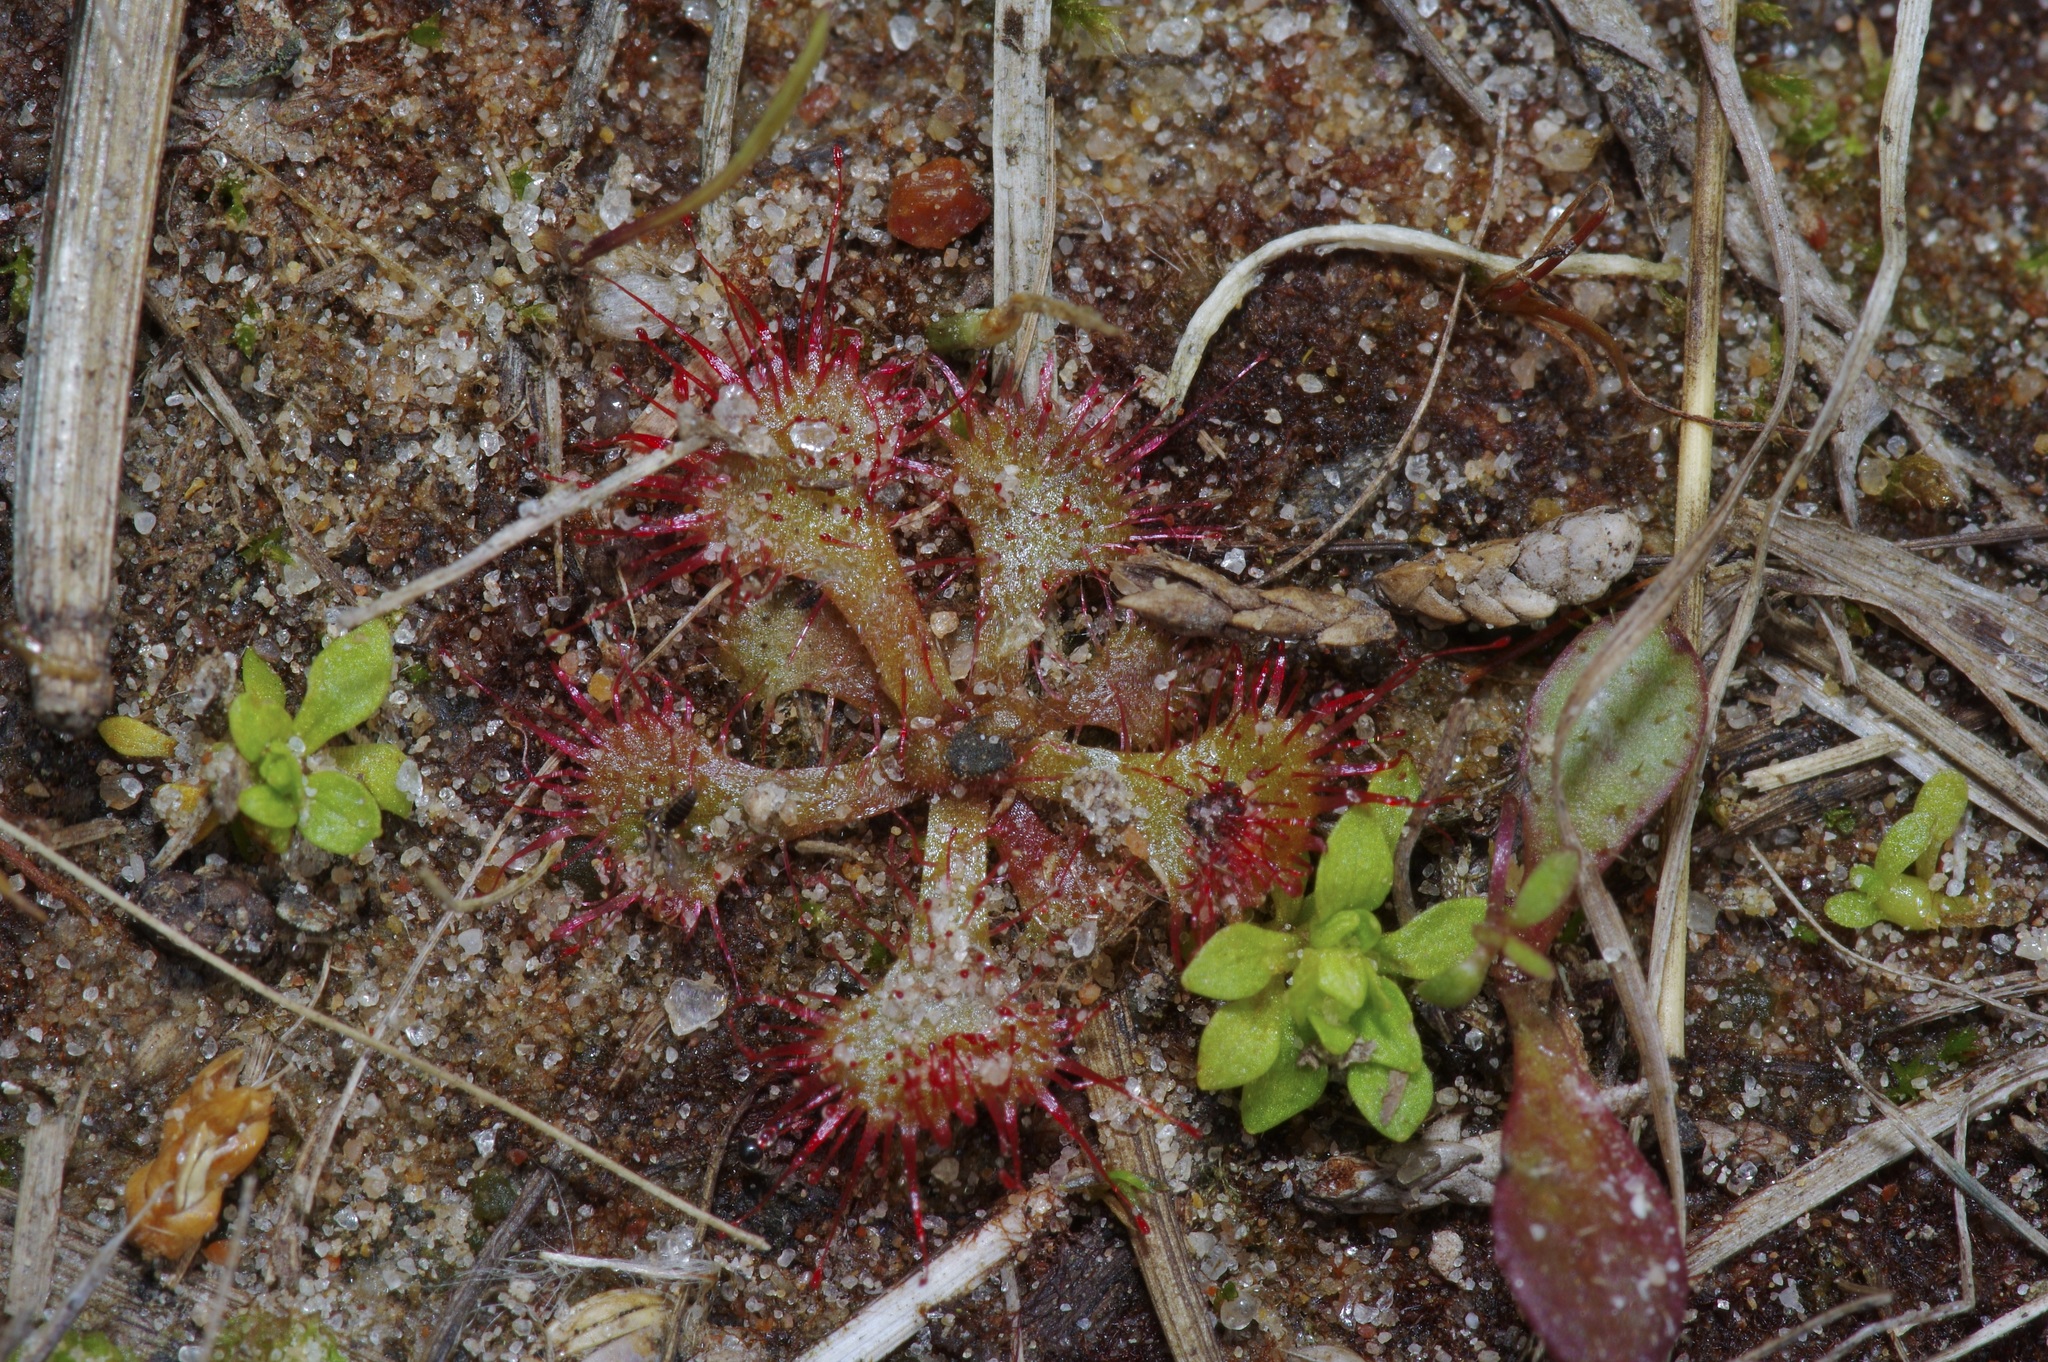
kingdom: Plantae
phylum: Tracheophyta
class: Magnoliopsida
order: Caryophyllales
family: Droseraceae
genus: Drosera
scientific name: Drosera brevifolia
